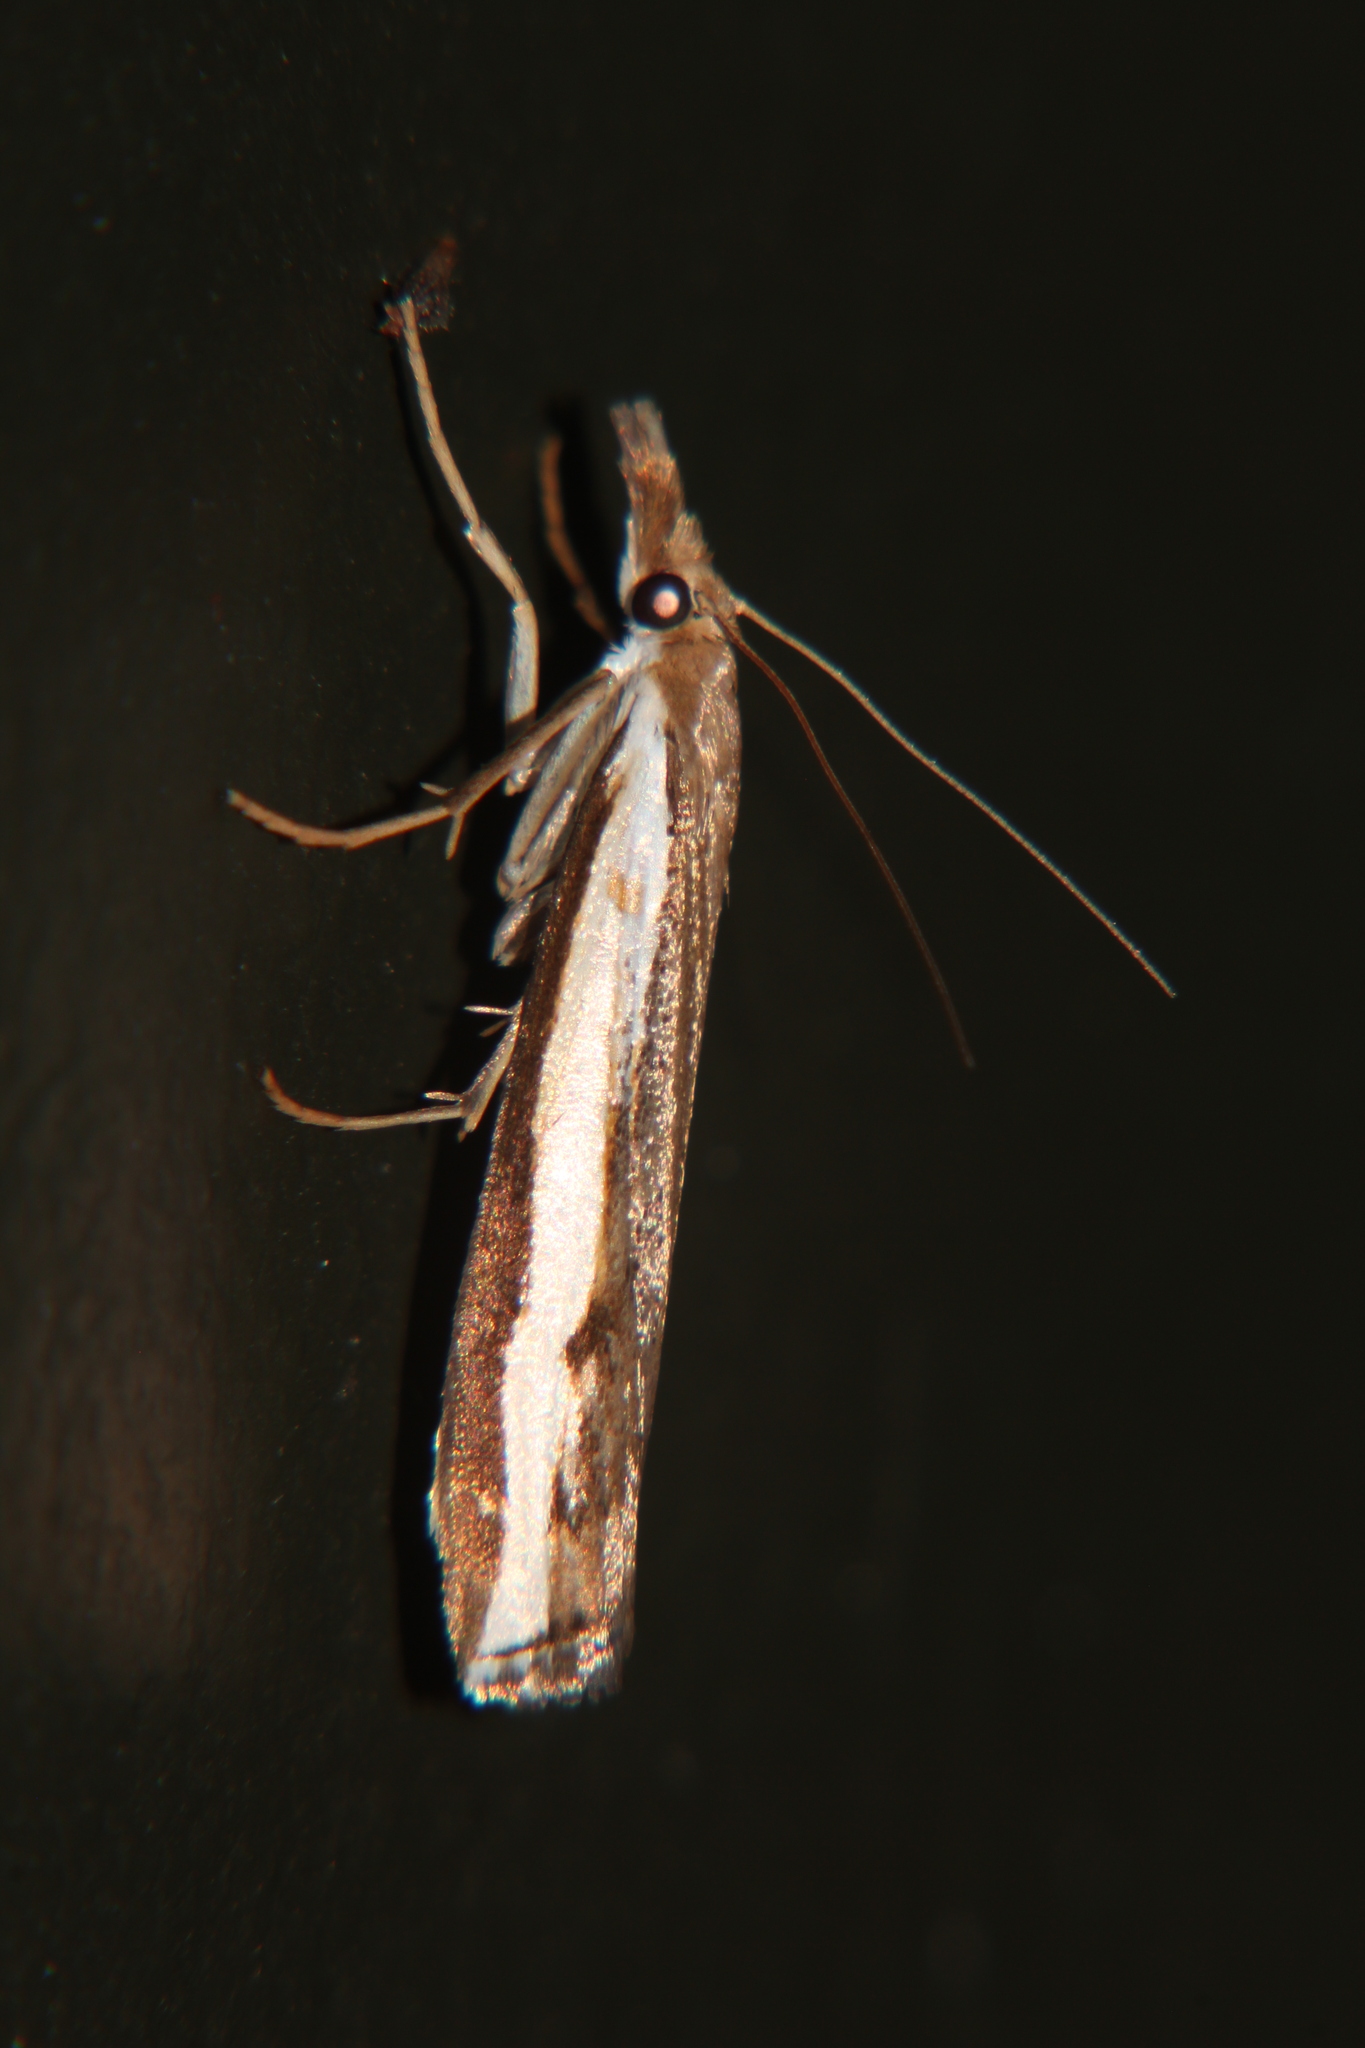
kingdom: Animalia
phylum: Arthropoda
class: Insecta
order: Lepidoptera
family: Crambidae
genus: Orocrambus
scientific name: Orocrambus flexuosellus
